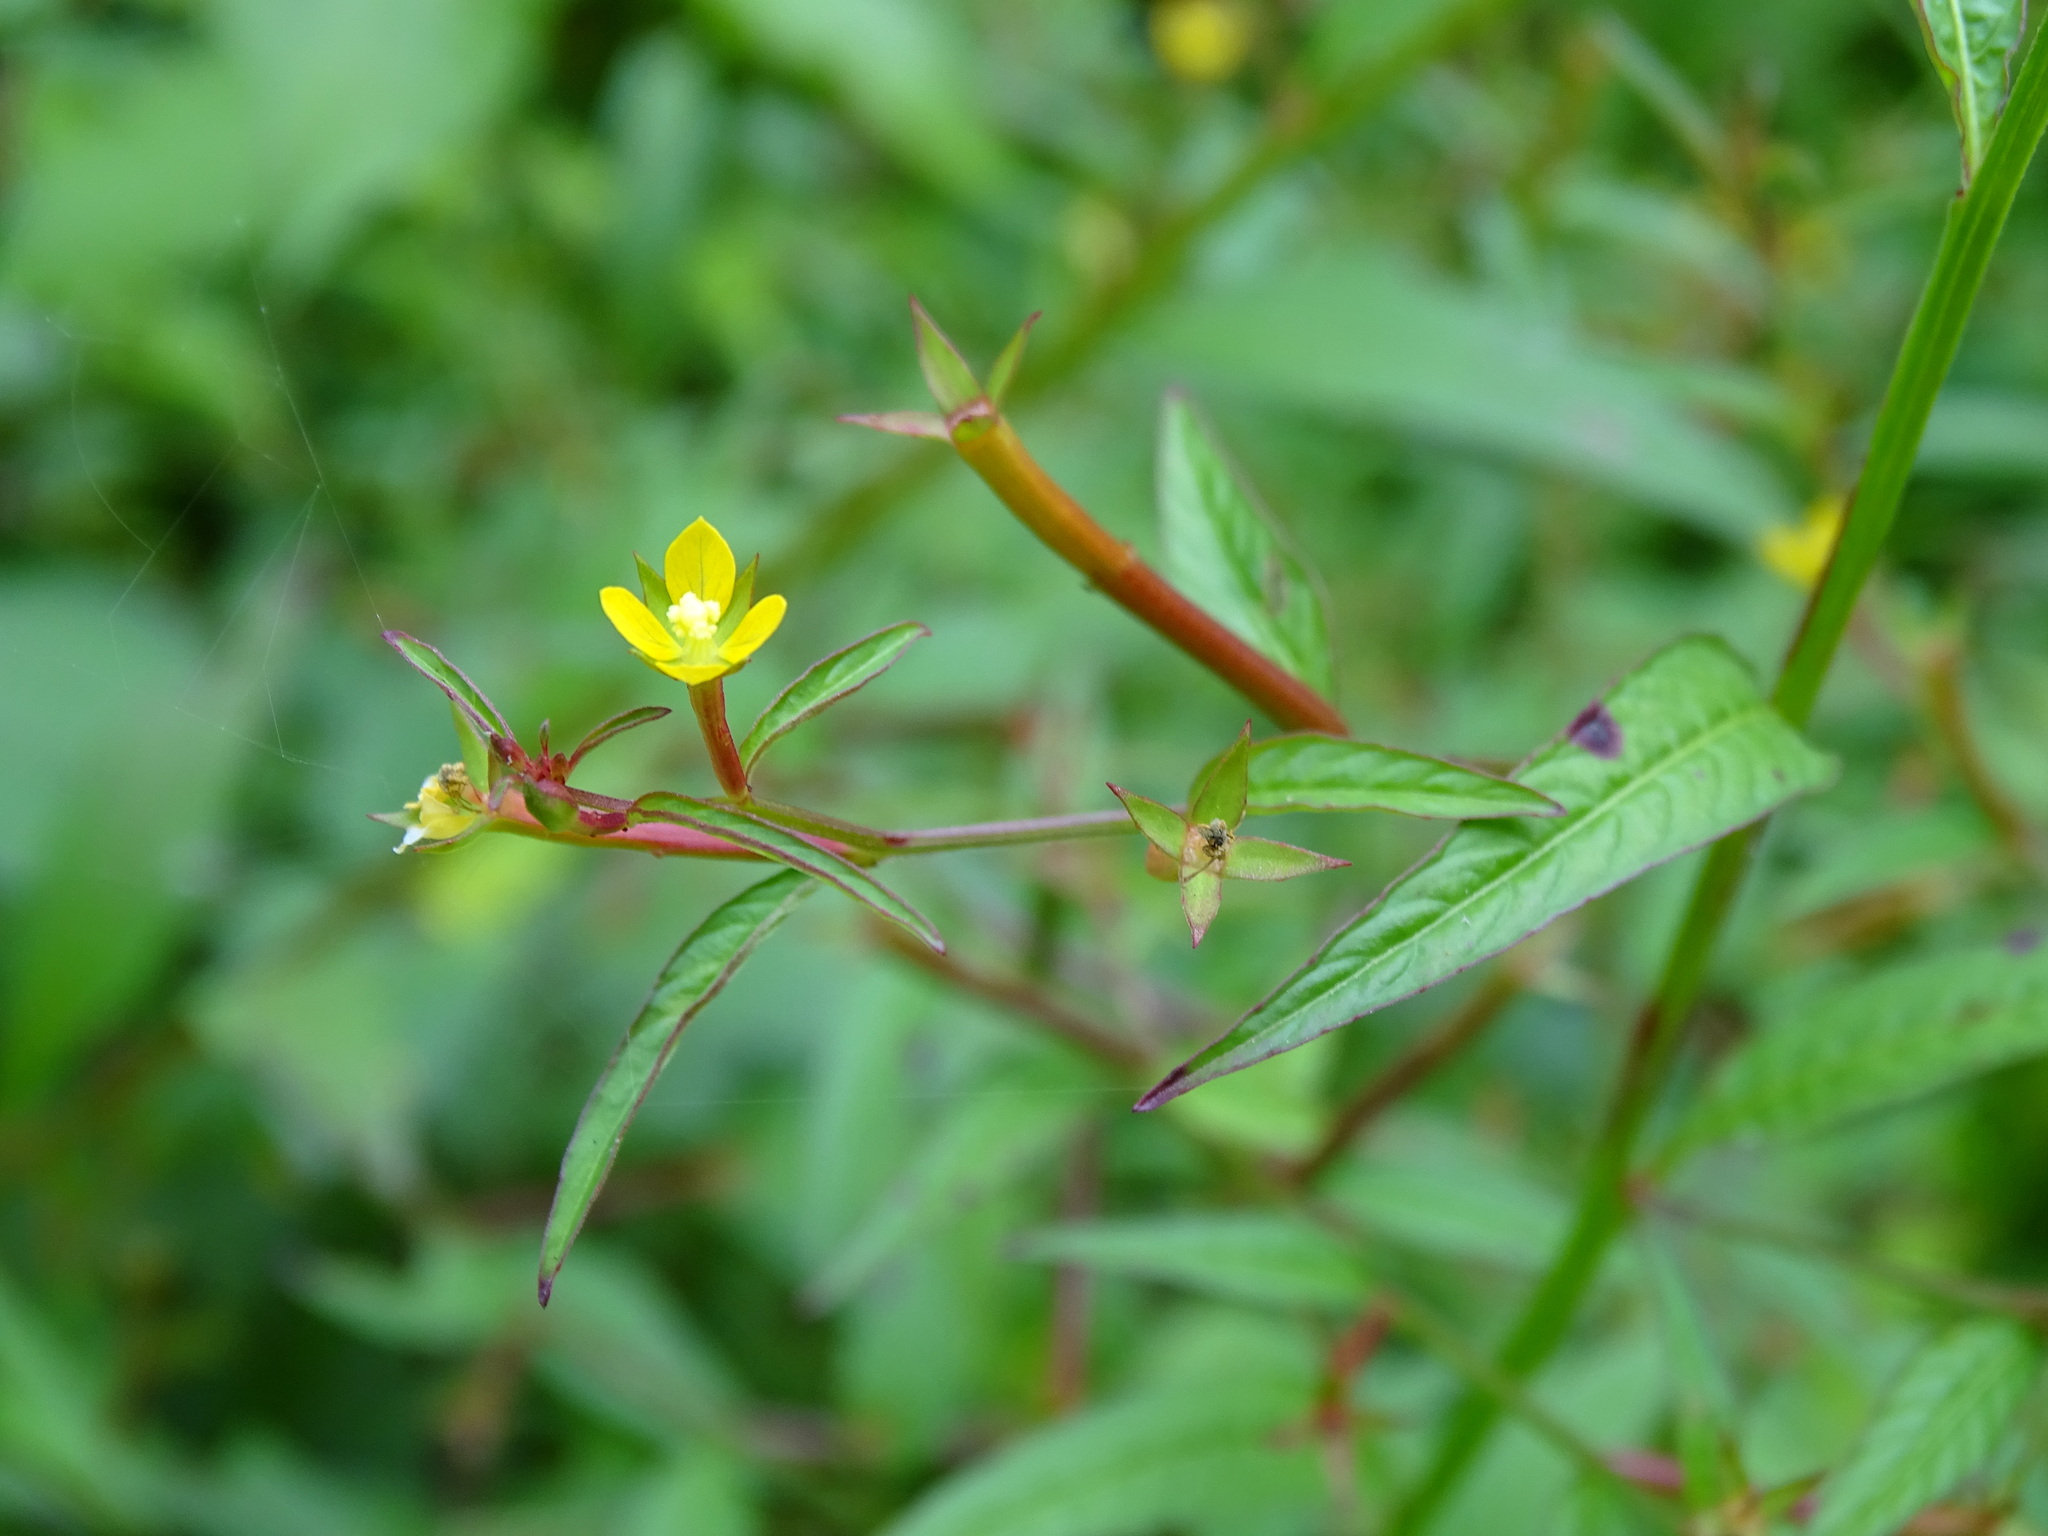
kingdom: Plantae
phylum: Tracheophyta
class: Magnoliopsida
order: Myrtales
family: Onagraceae
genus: Ludwigia
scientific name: Ludwigia hyssopifolia
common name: Linear leaf water primrose
